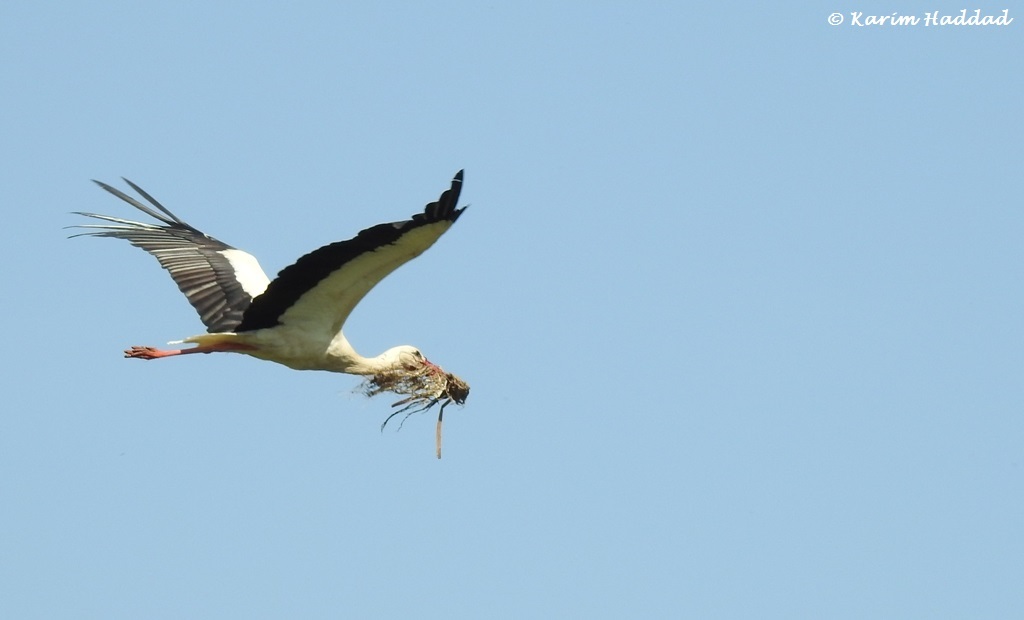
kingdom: Animalia
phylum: Chordata
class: Aves
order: Ciconiiformes
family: Ciconiidae
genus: Ciconia
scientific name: Ciconia ciconia
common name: White stork
